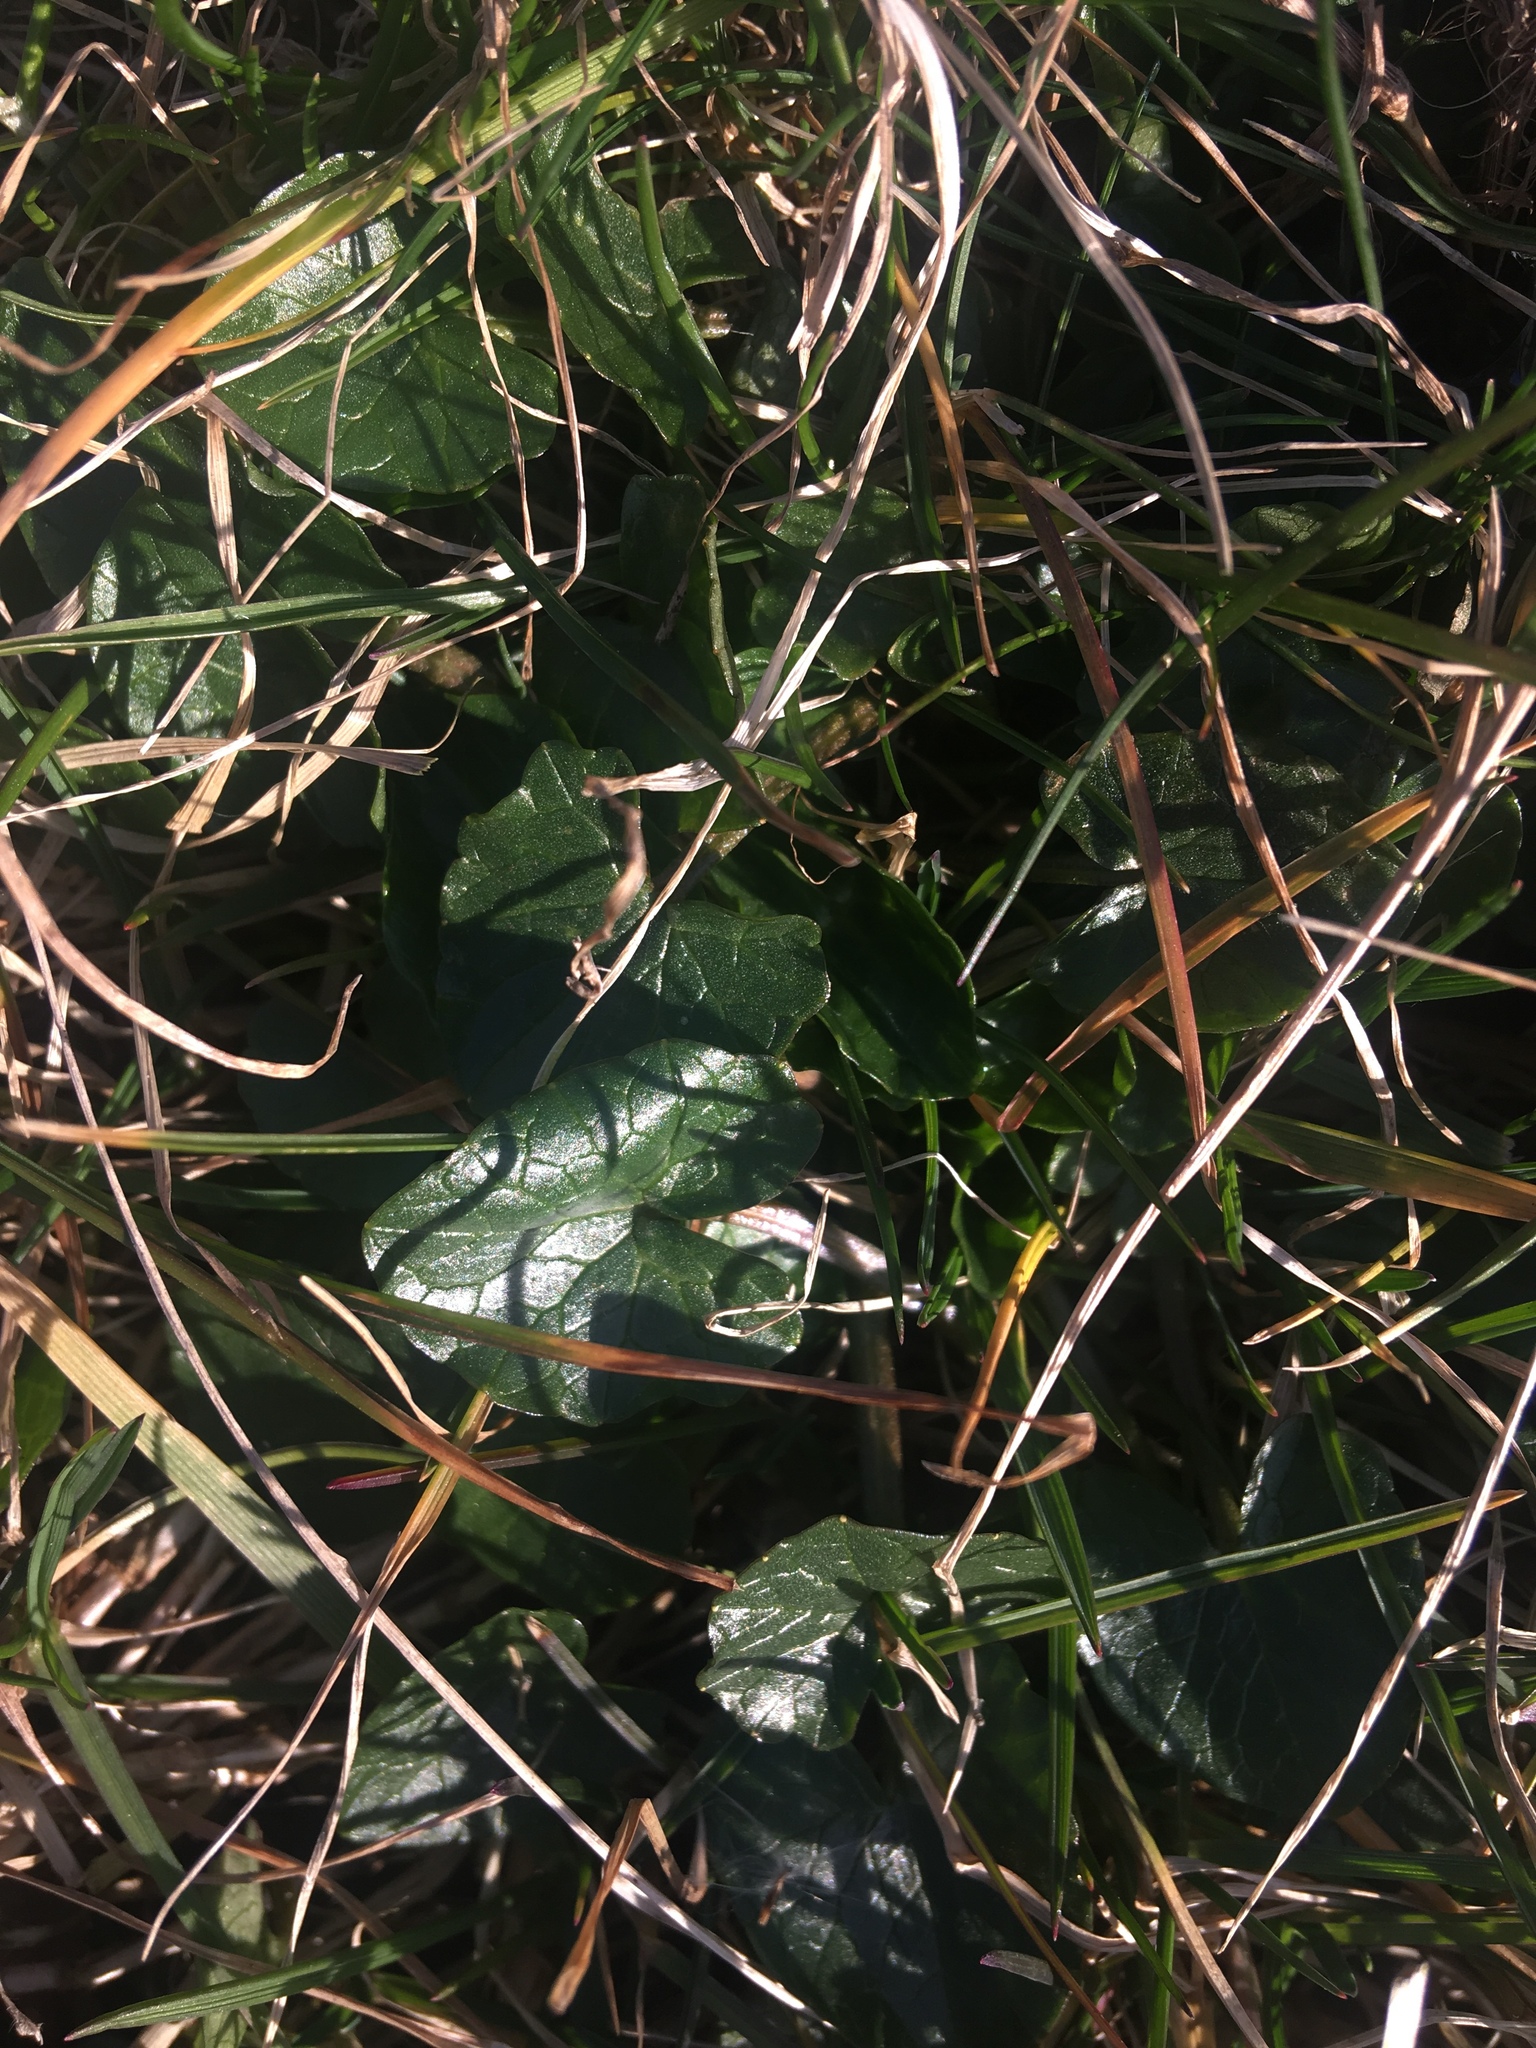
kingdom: Plantae
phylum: Tracheophyta
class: Magnoliopsida
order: Ranunculales
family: Ranunculaceae
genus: Ficaria
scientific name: Ficaria verna
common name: Lesser celandine
